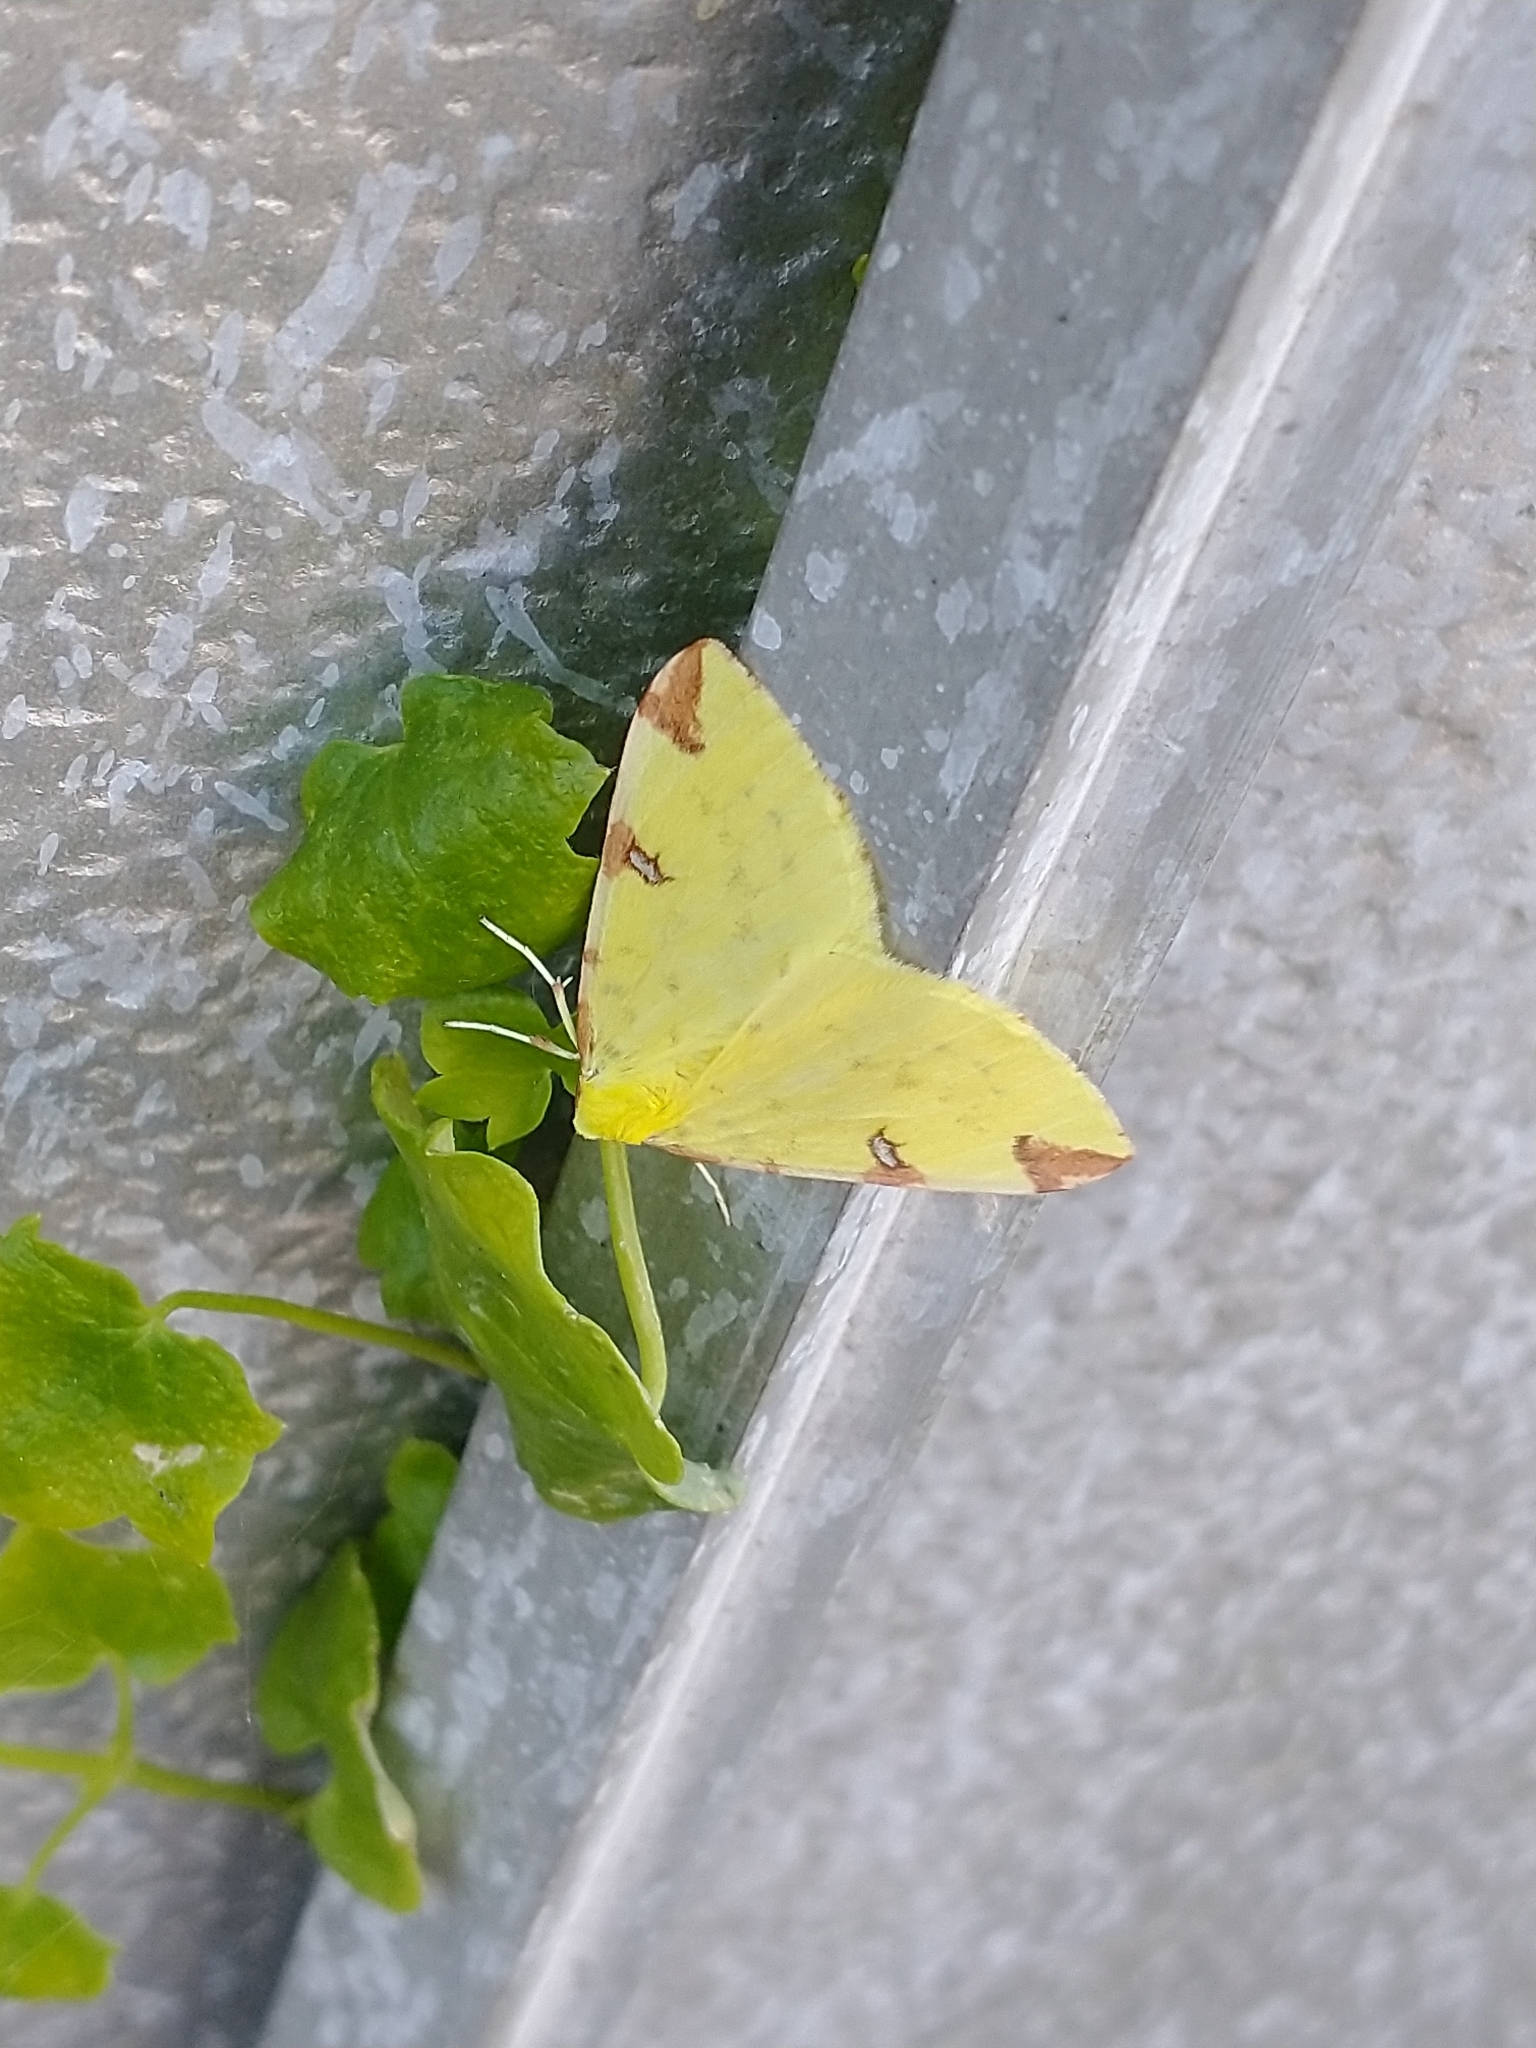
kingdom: Animalia
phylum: Arthropoda
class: Insecta
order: Lepidoptera
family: Geometridae
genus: Opisthograptis
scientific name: Opisthograptis luteolata
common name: Brimstone moth
